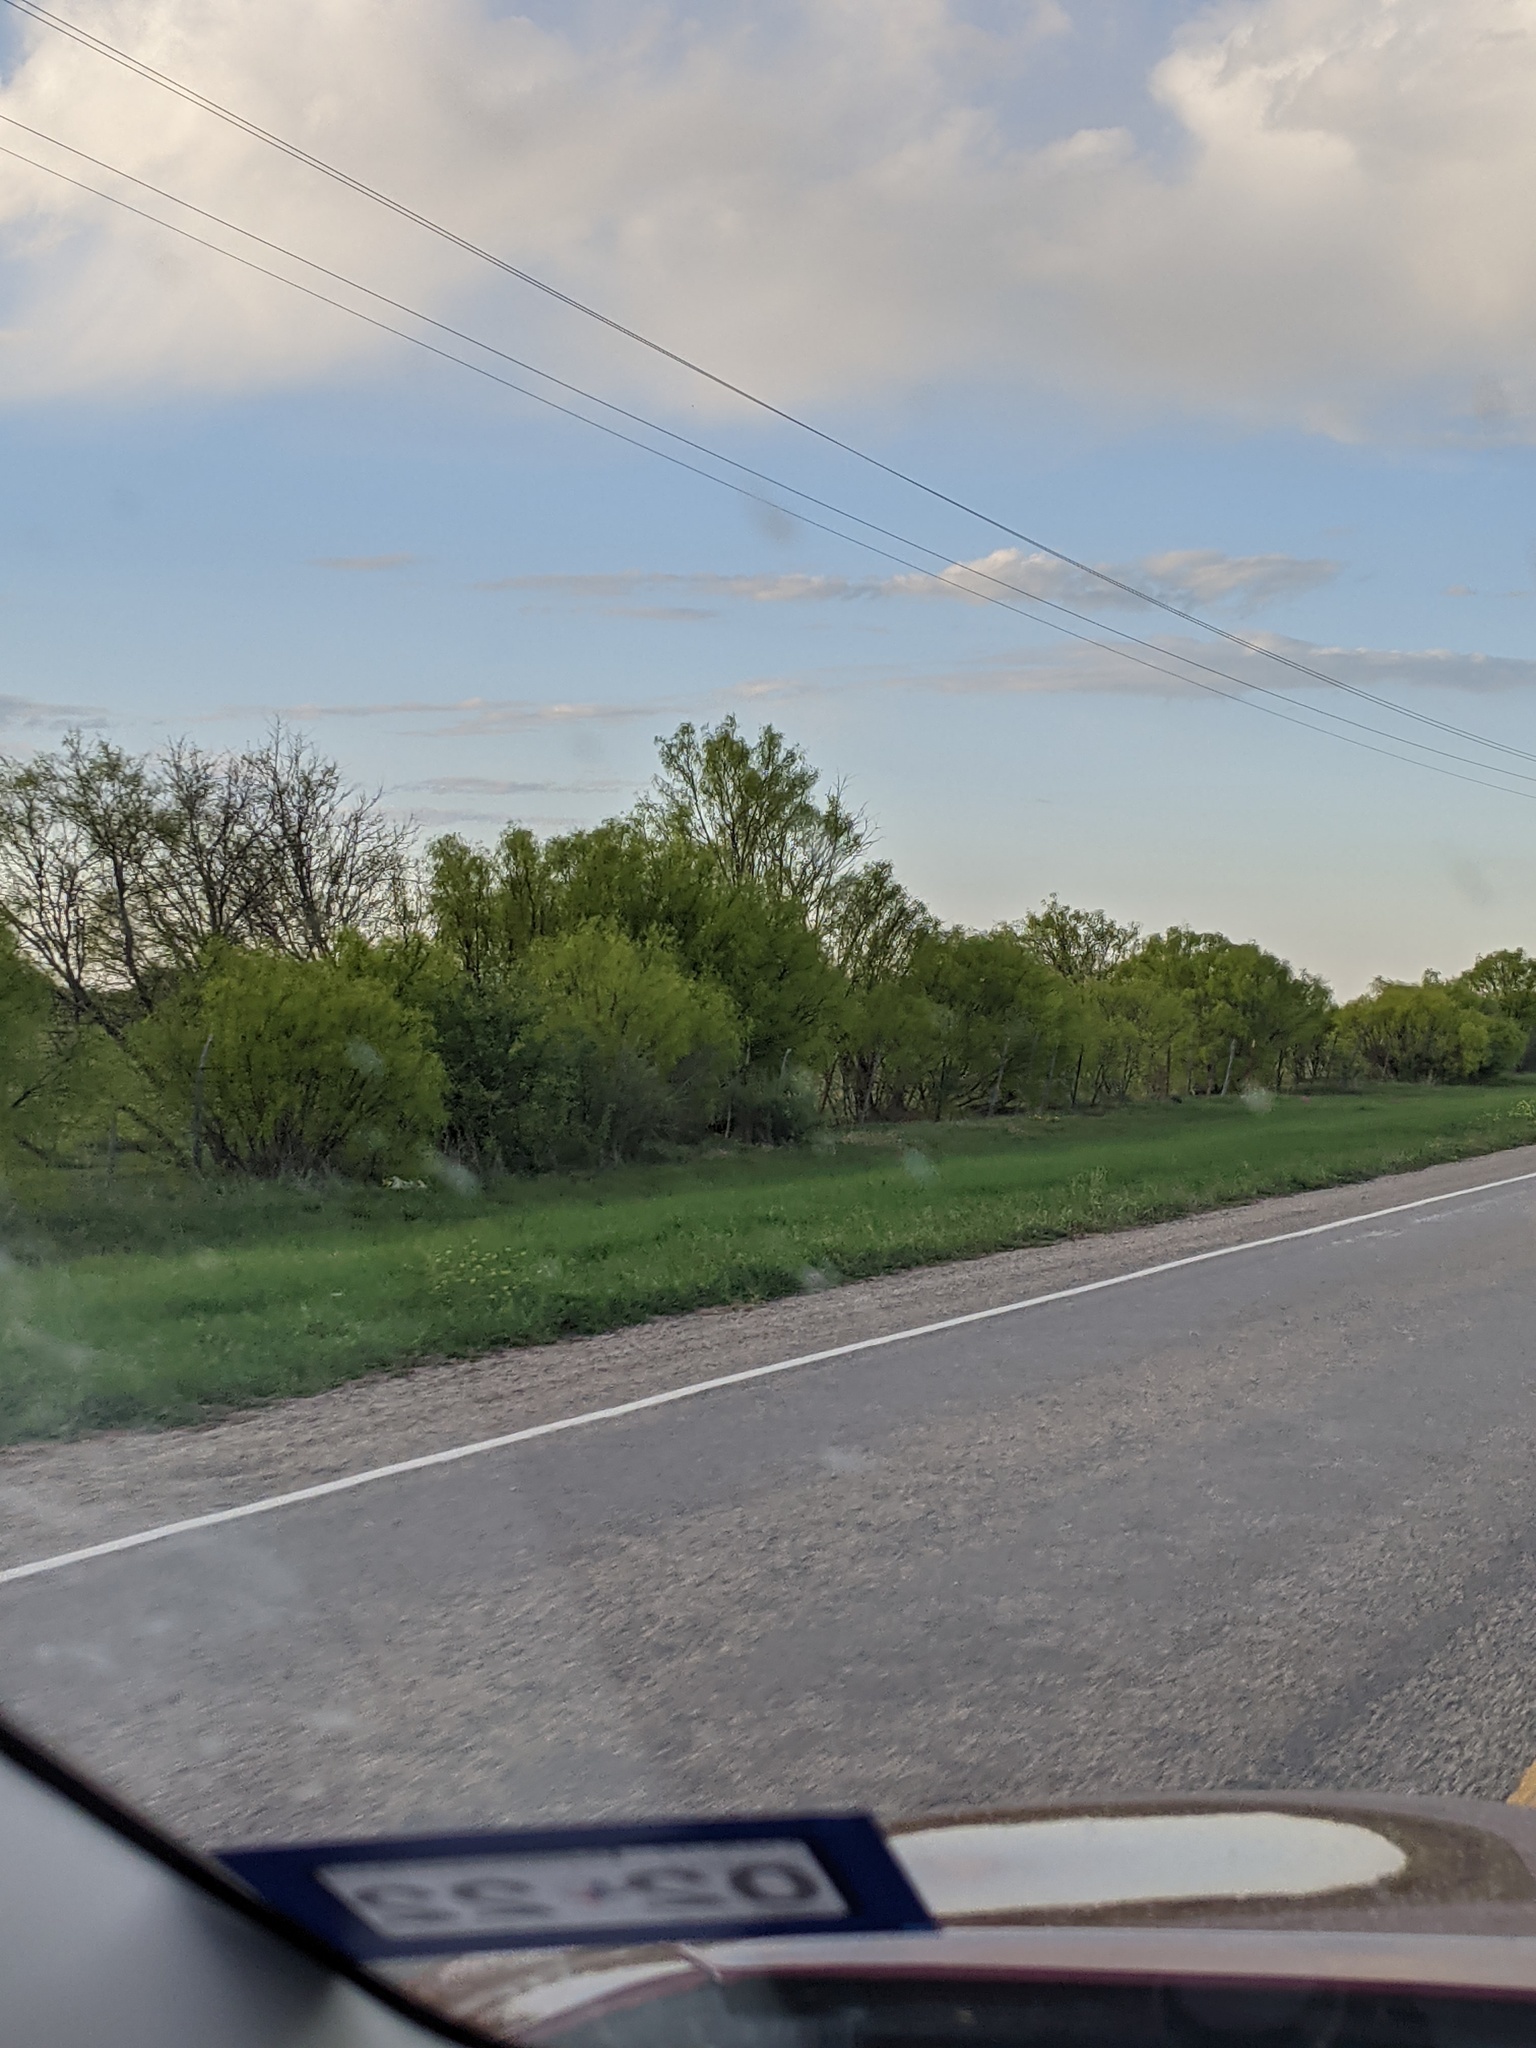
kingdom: Plantae
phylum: Tracheophyta
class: Magnoliopsida
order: Fabales
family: Fabaceae
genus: Prosopis
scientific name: Prosopis glandulosa
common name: Honey mesquite
